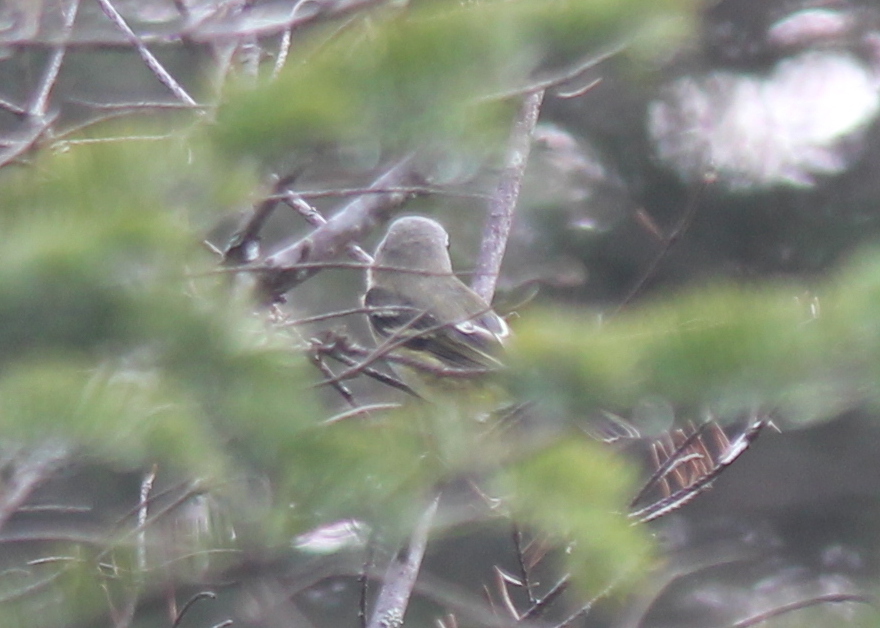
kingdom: Animalia
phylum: Chordata
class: Aves
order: Passeriformes
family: Vireonidae
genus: Vireo
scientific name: Vireo solitarius
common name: Blue-headed vireo
